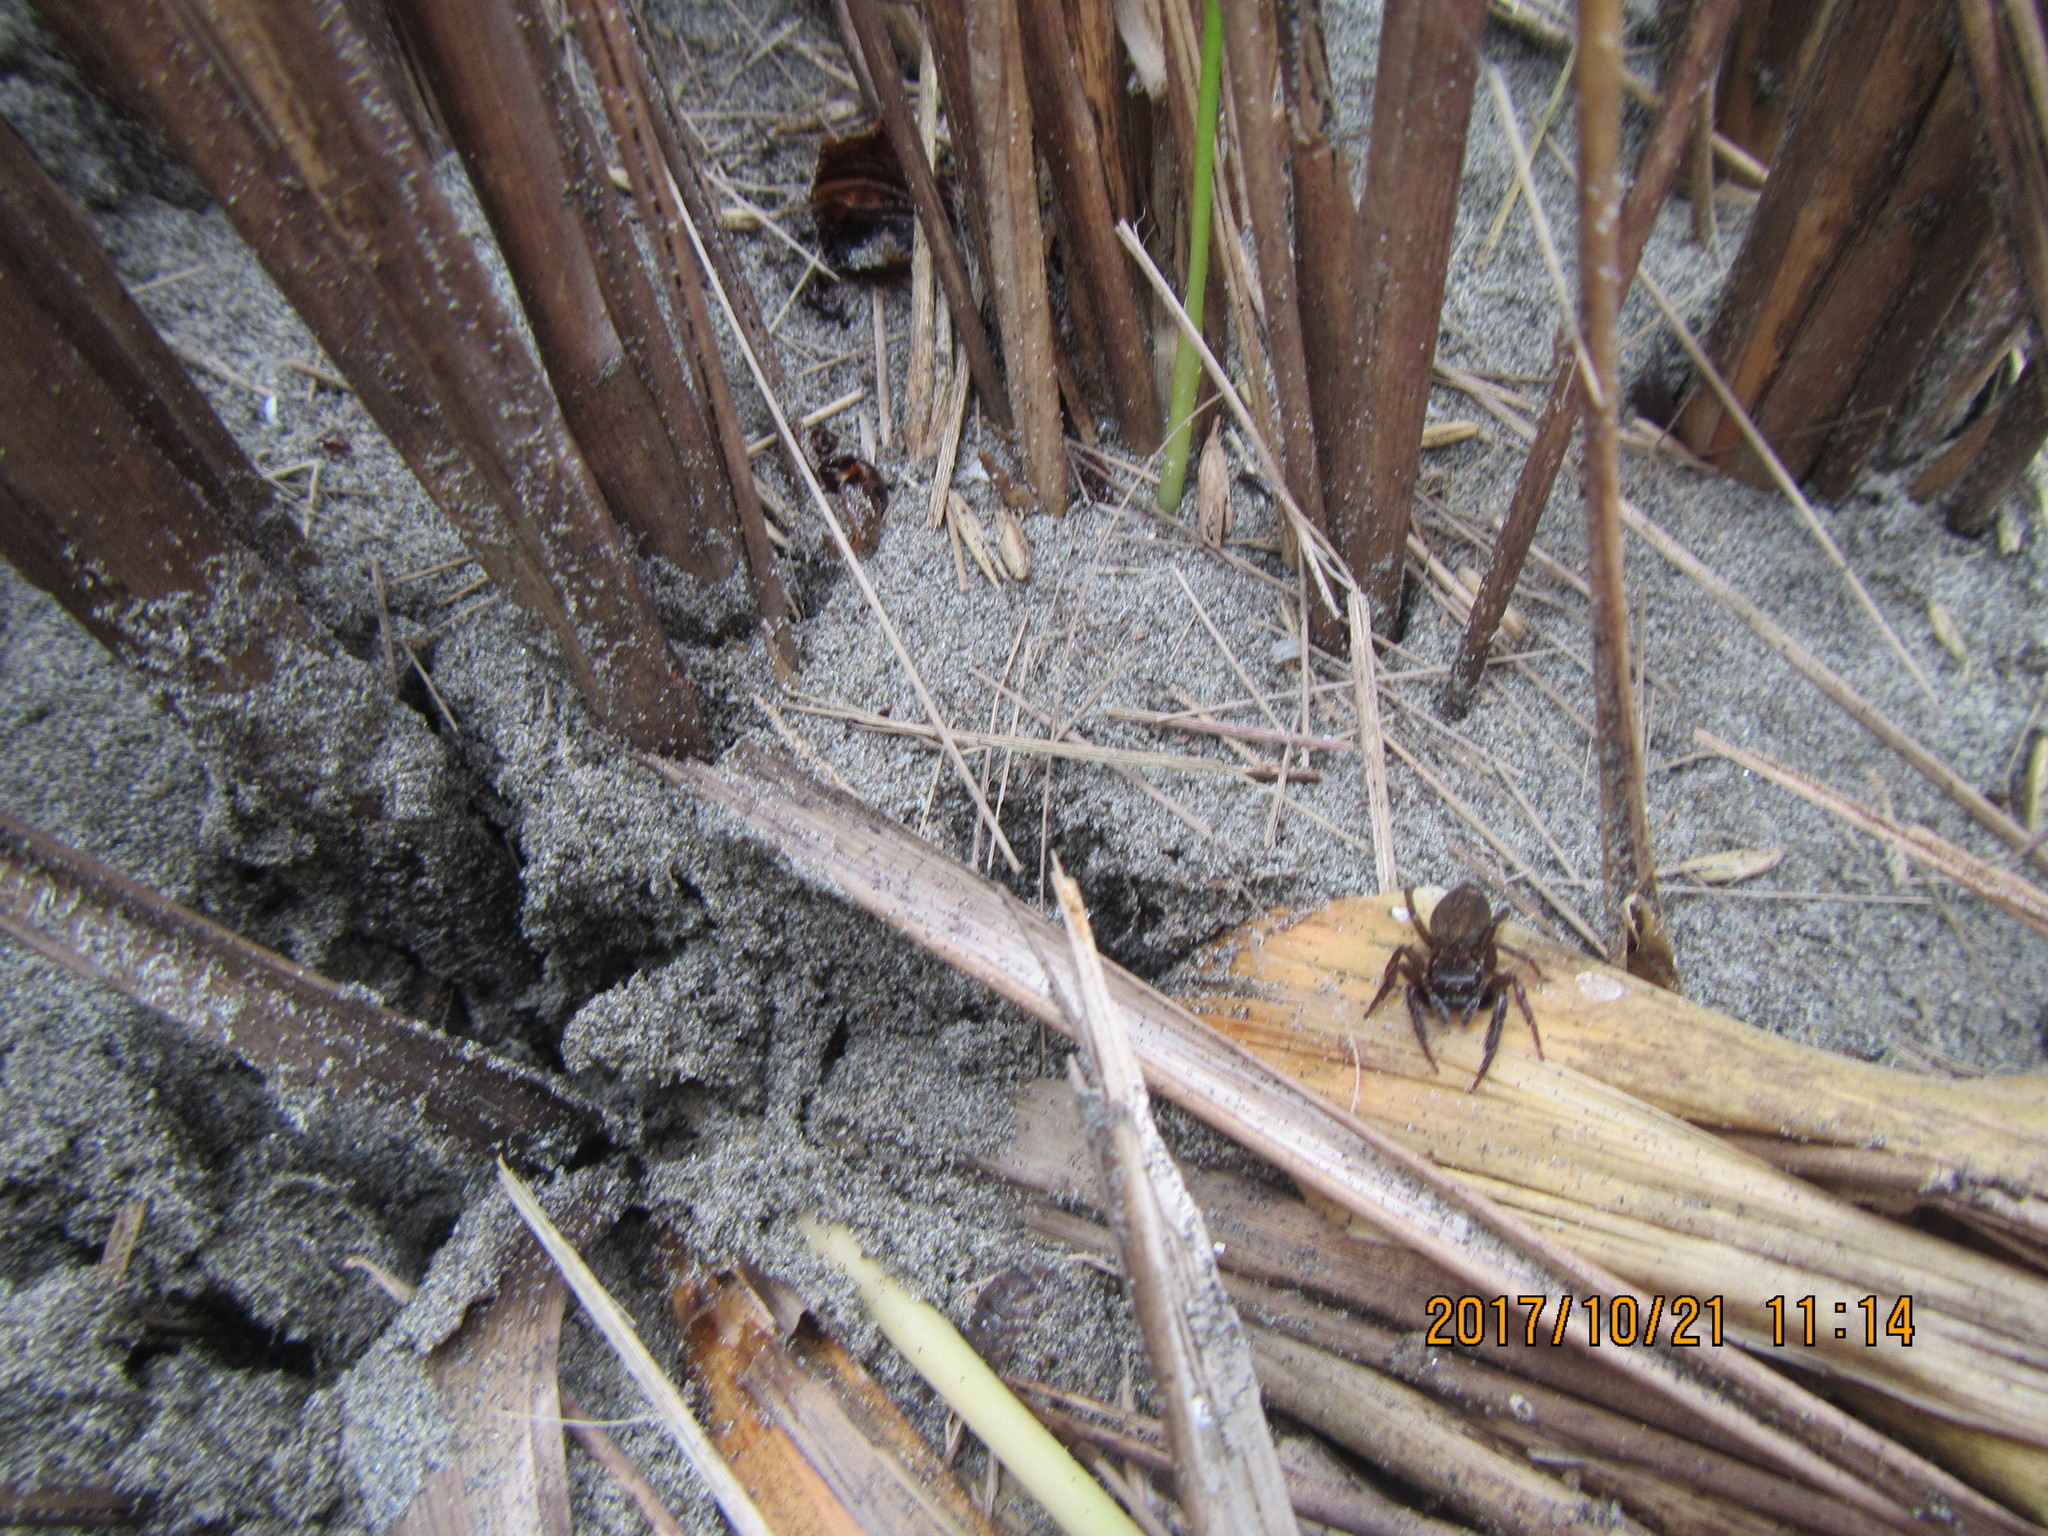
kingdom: Animalia
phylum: Arthropoda
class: Arachnida
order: Araneae
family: Salticidae
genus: Trite
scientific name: Trite auricoma
